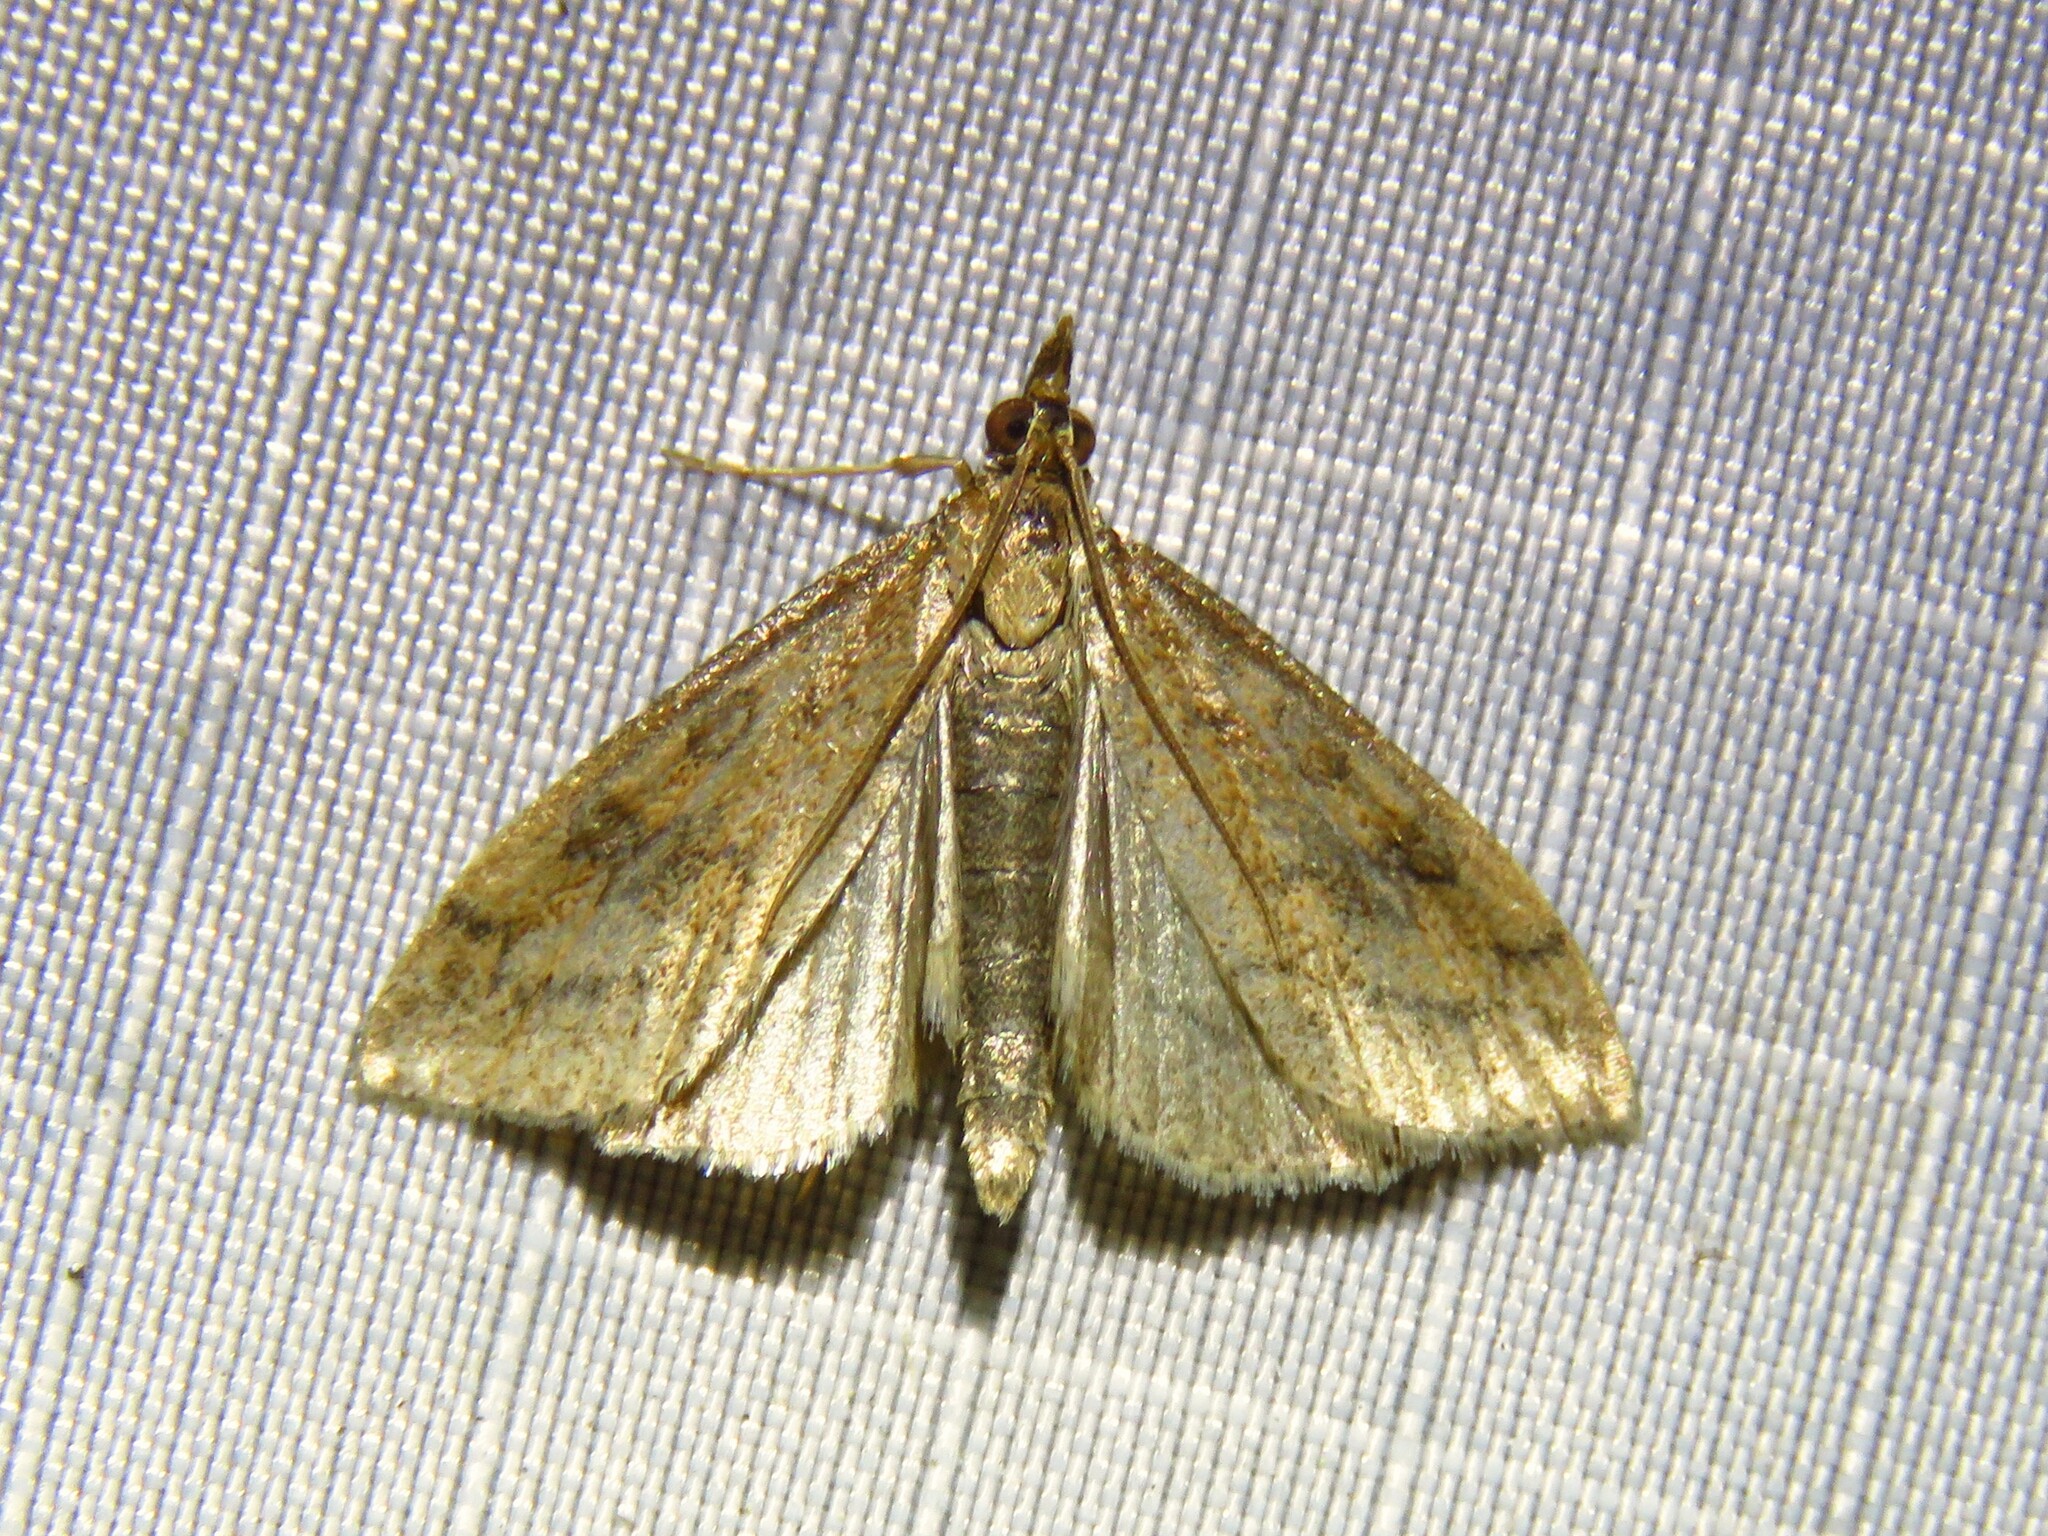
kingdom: Animalia
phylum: Arthropoda
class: Insecta
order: Lepidoptera
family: Crambidae
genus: Udea
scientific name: Udea rubigalis
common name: Celery leaftier moth
